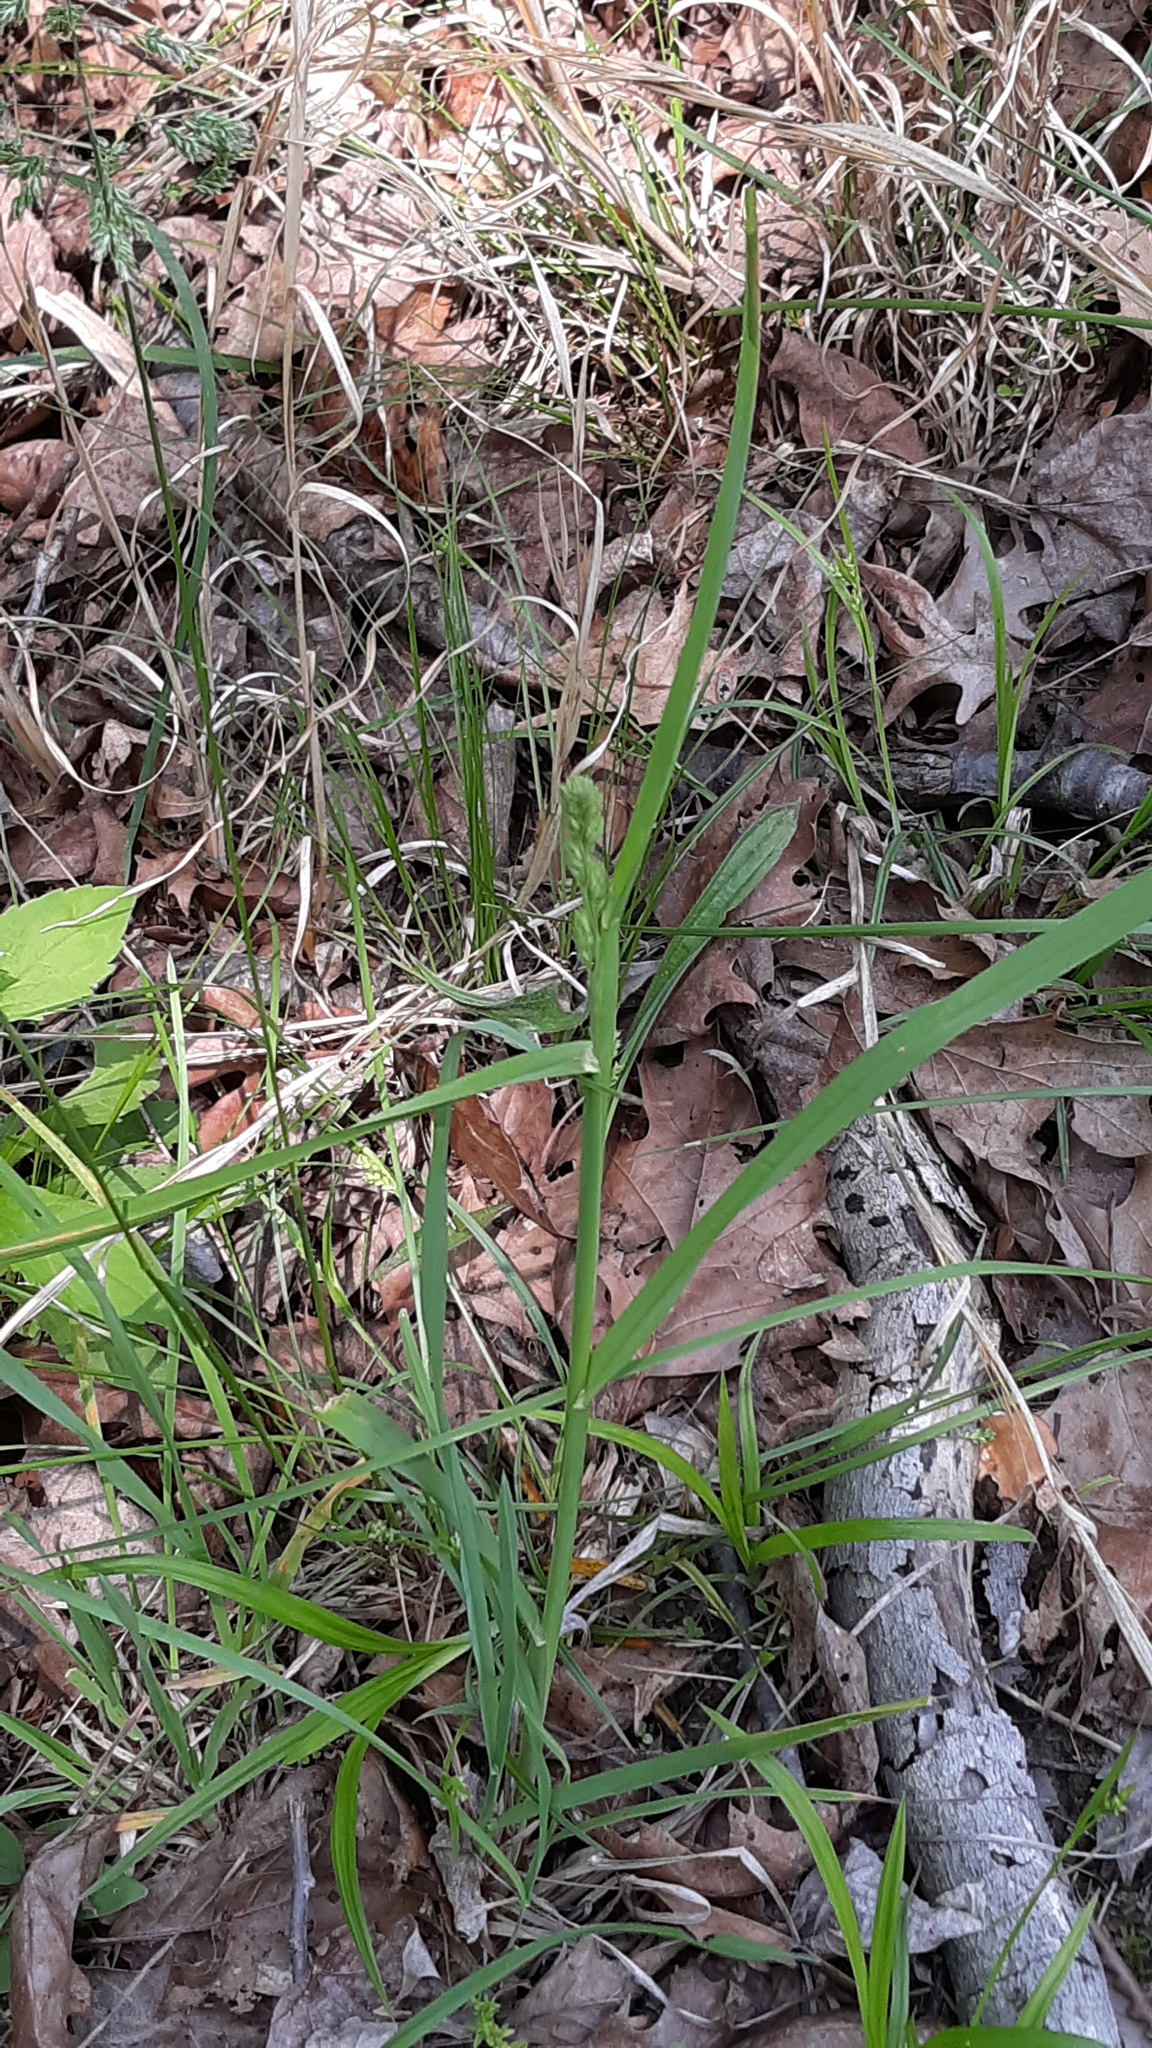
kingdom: Plantae
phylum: Tracheophyta
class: Liliopsida
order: Poales
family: Poaceae
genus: Dactylis
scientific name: Dactylis glomerata
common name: Orchardgrass
